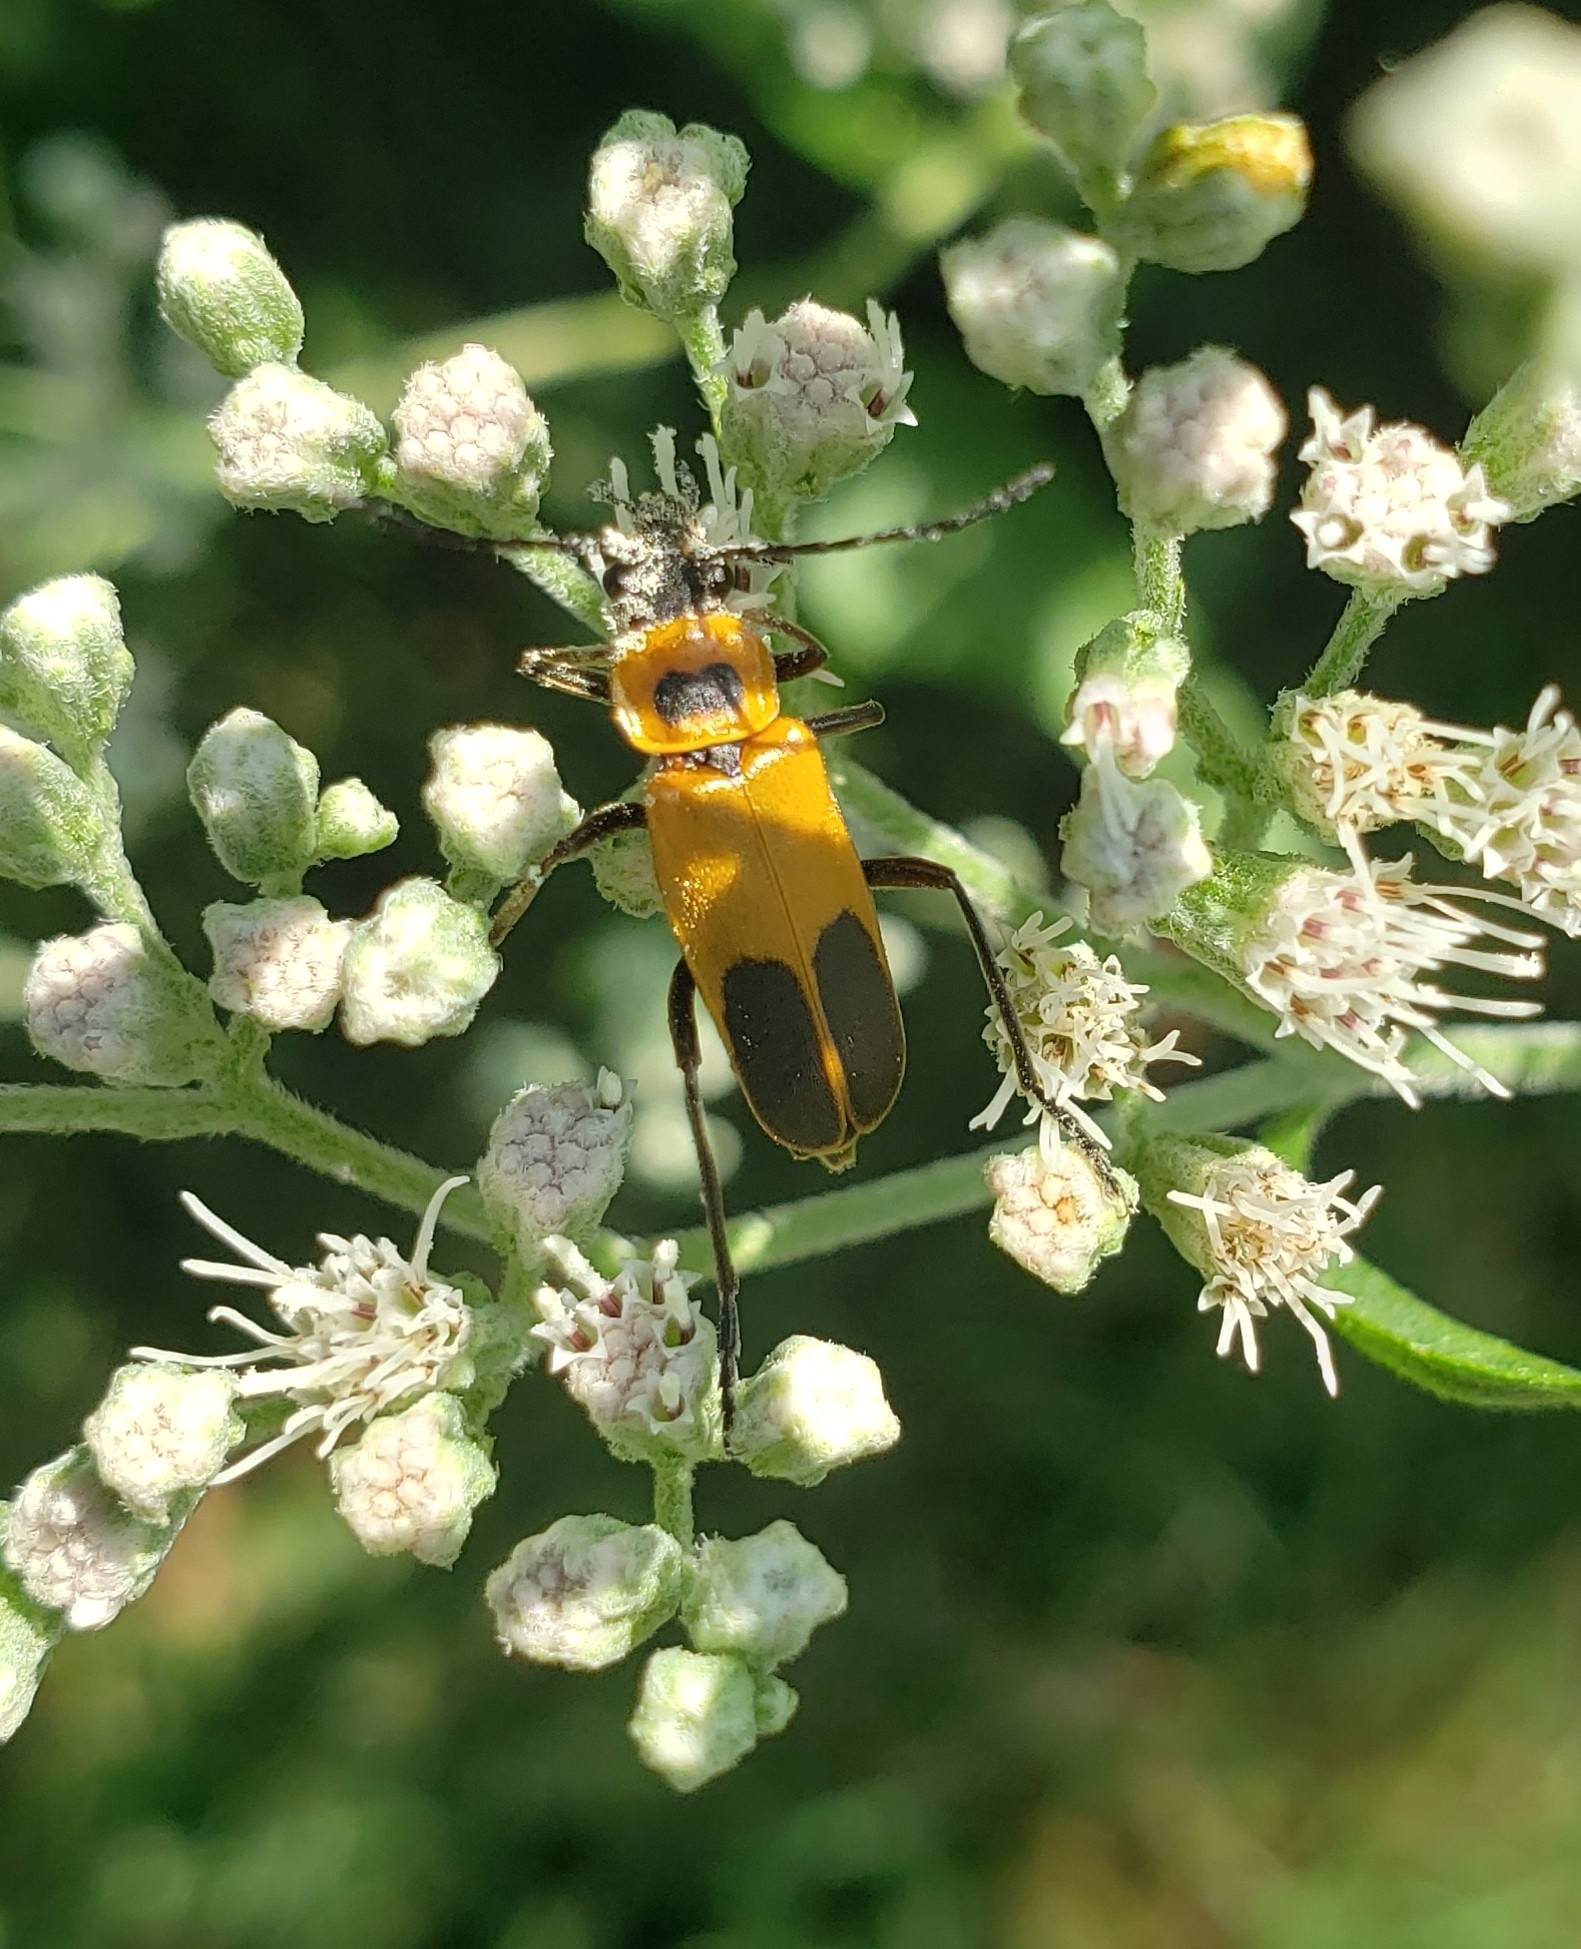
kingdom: Animalia
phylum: Arthropoda
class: Insecta
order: Coleoptera
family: Cantharidae
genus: Chauliognathus
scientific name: Chauliognathus pensylvanicus
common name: Goldenrod soldier beetle
